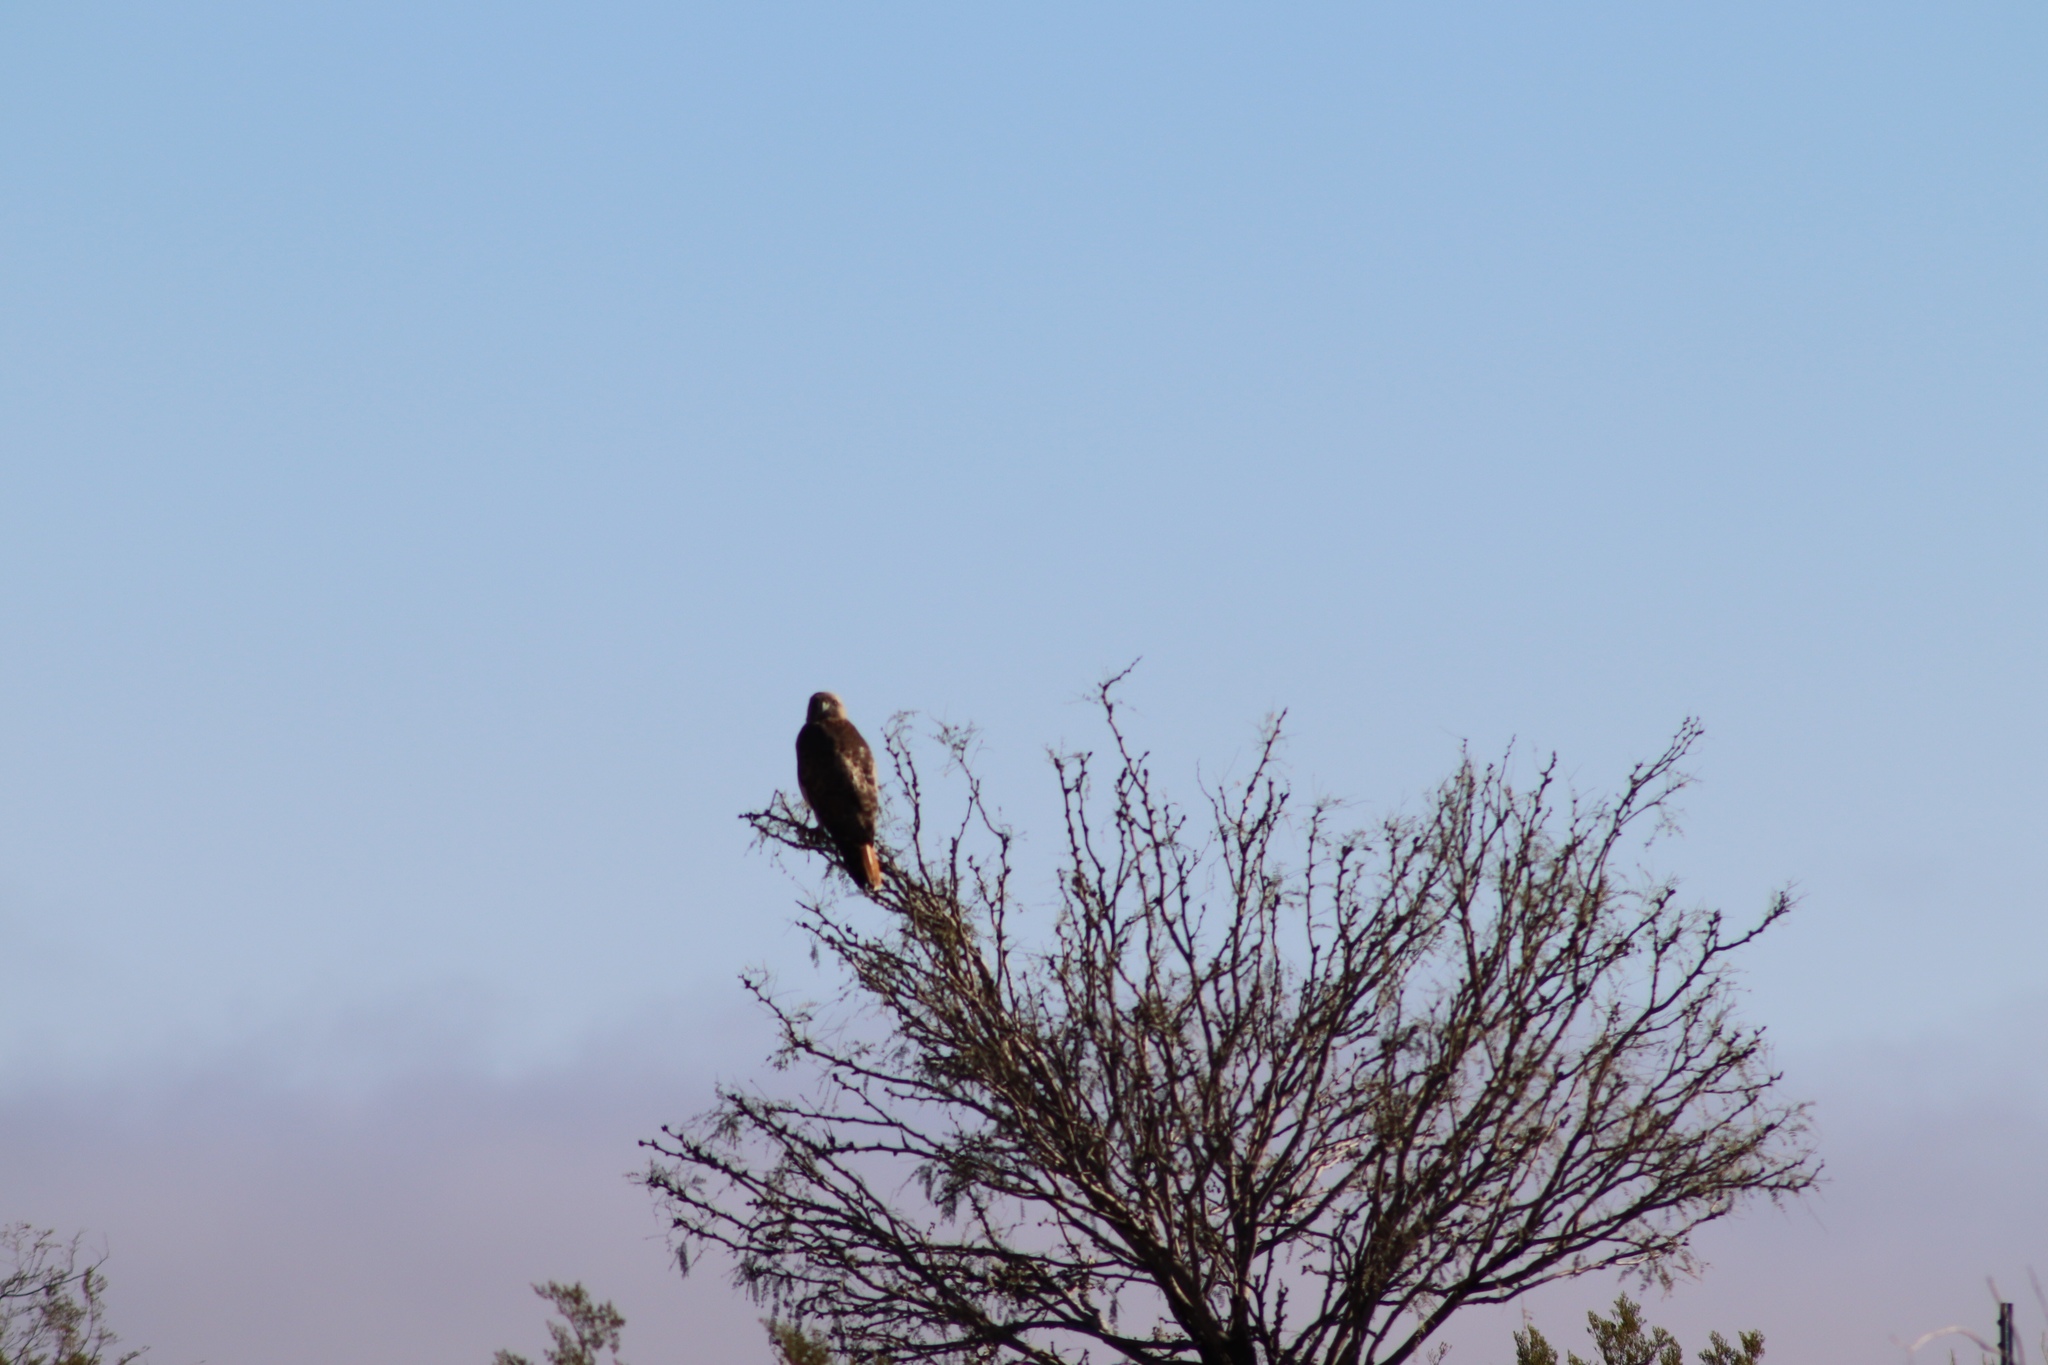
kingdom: Animalia
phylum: Chordata
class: Aves
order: Accipitriformes
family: Accipitridae
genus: Buteo
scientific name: Buteo jamaicensis
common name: Red-tailed hawk
